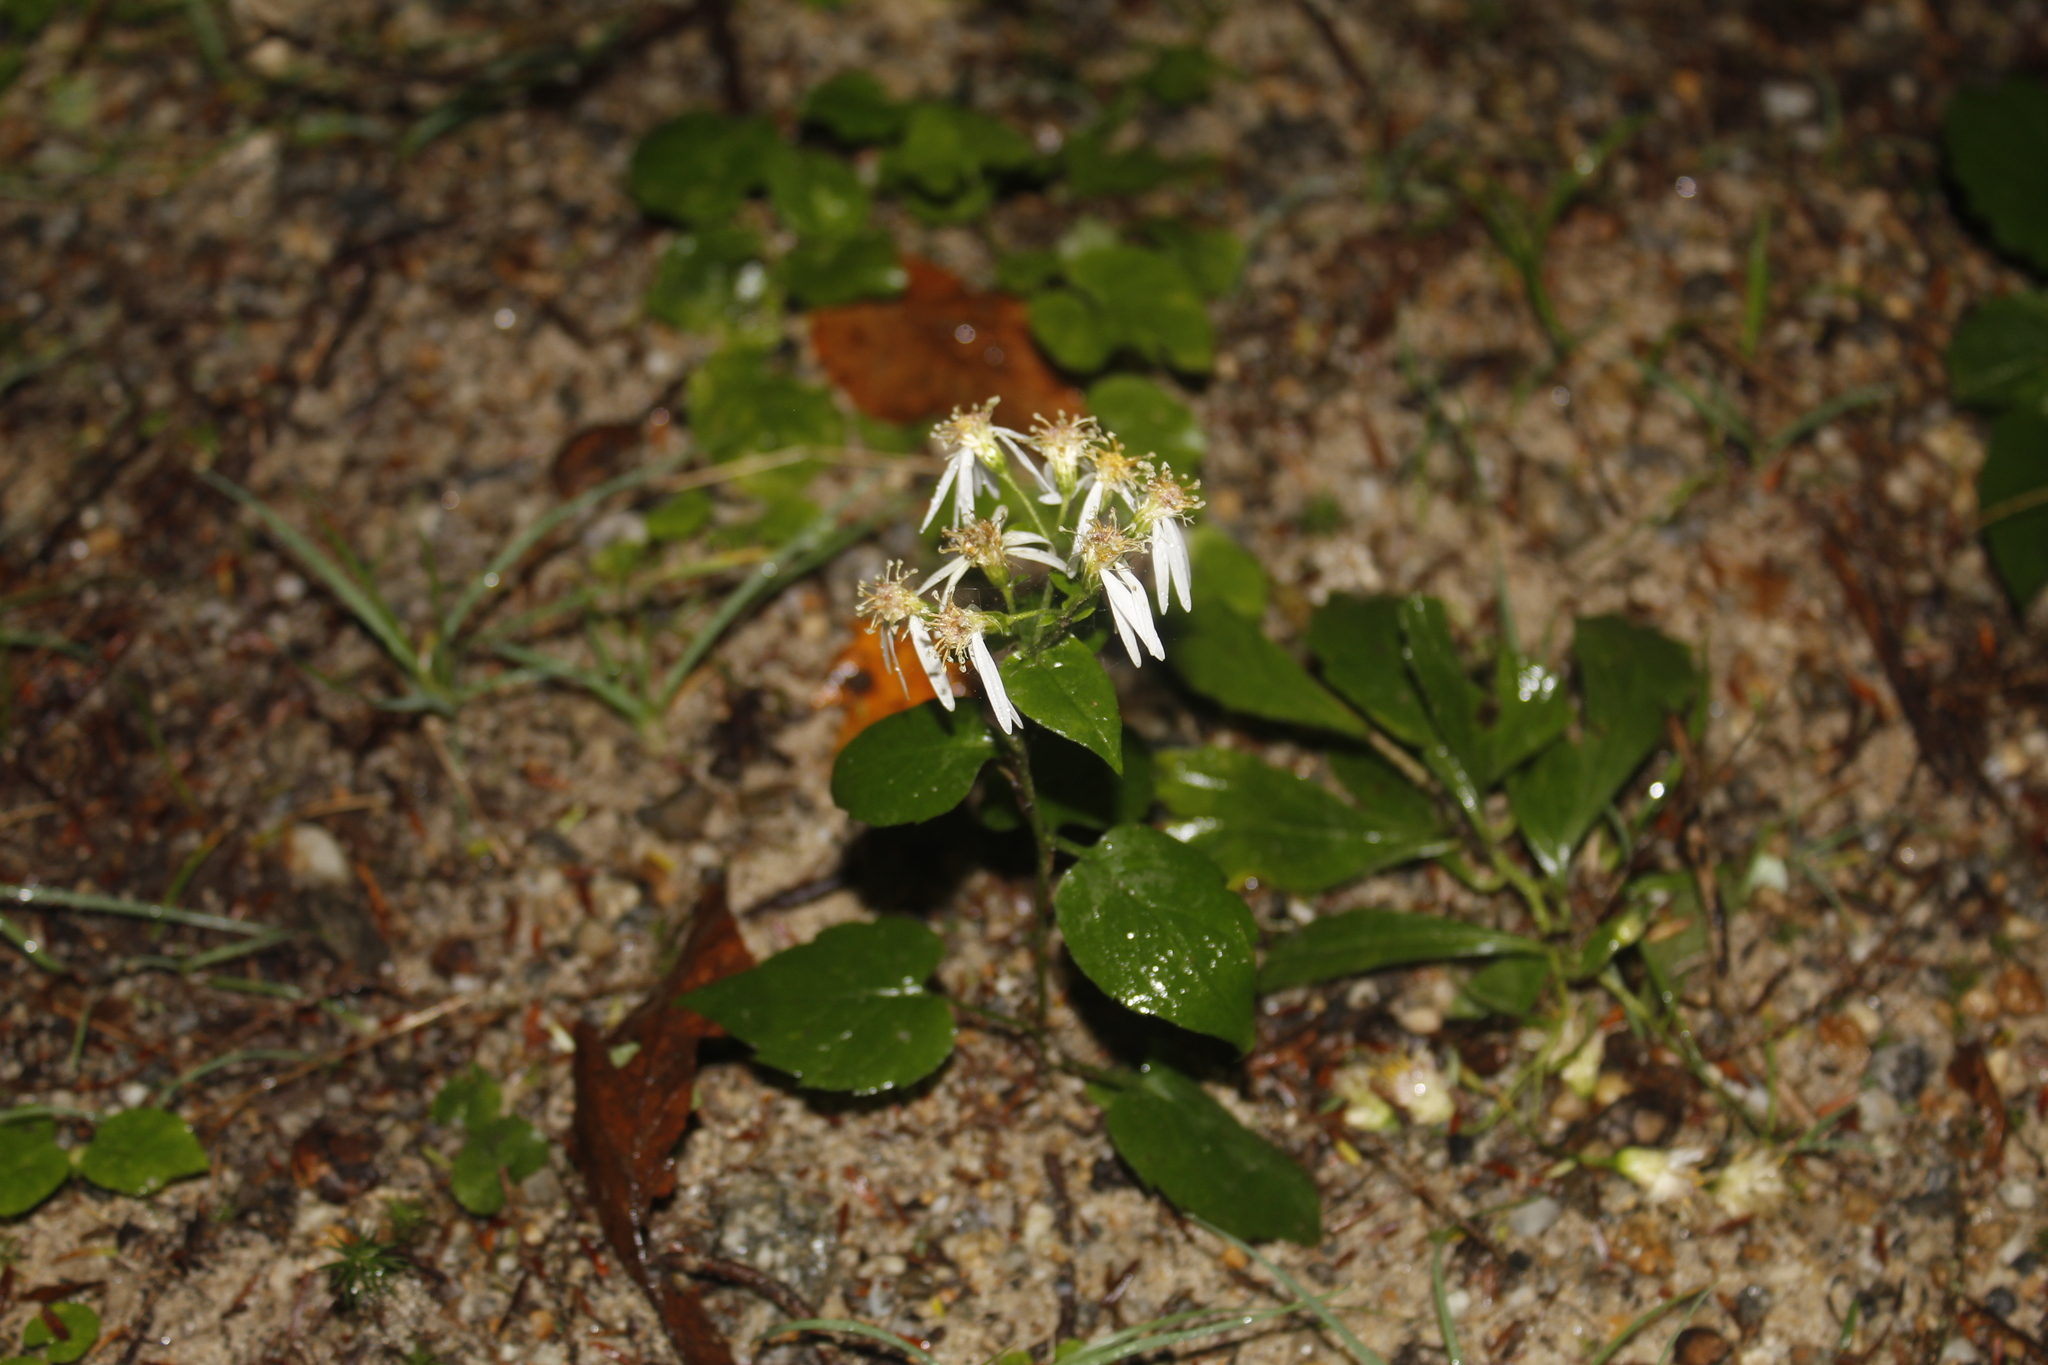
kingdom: Plantae
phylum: Tracheophyta
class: Magnoliopsida
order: Asterales
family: Asteraceae
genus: Eurybia
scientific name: Eurybia divaricata
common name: White wood aster
